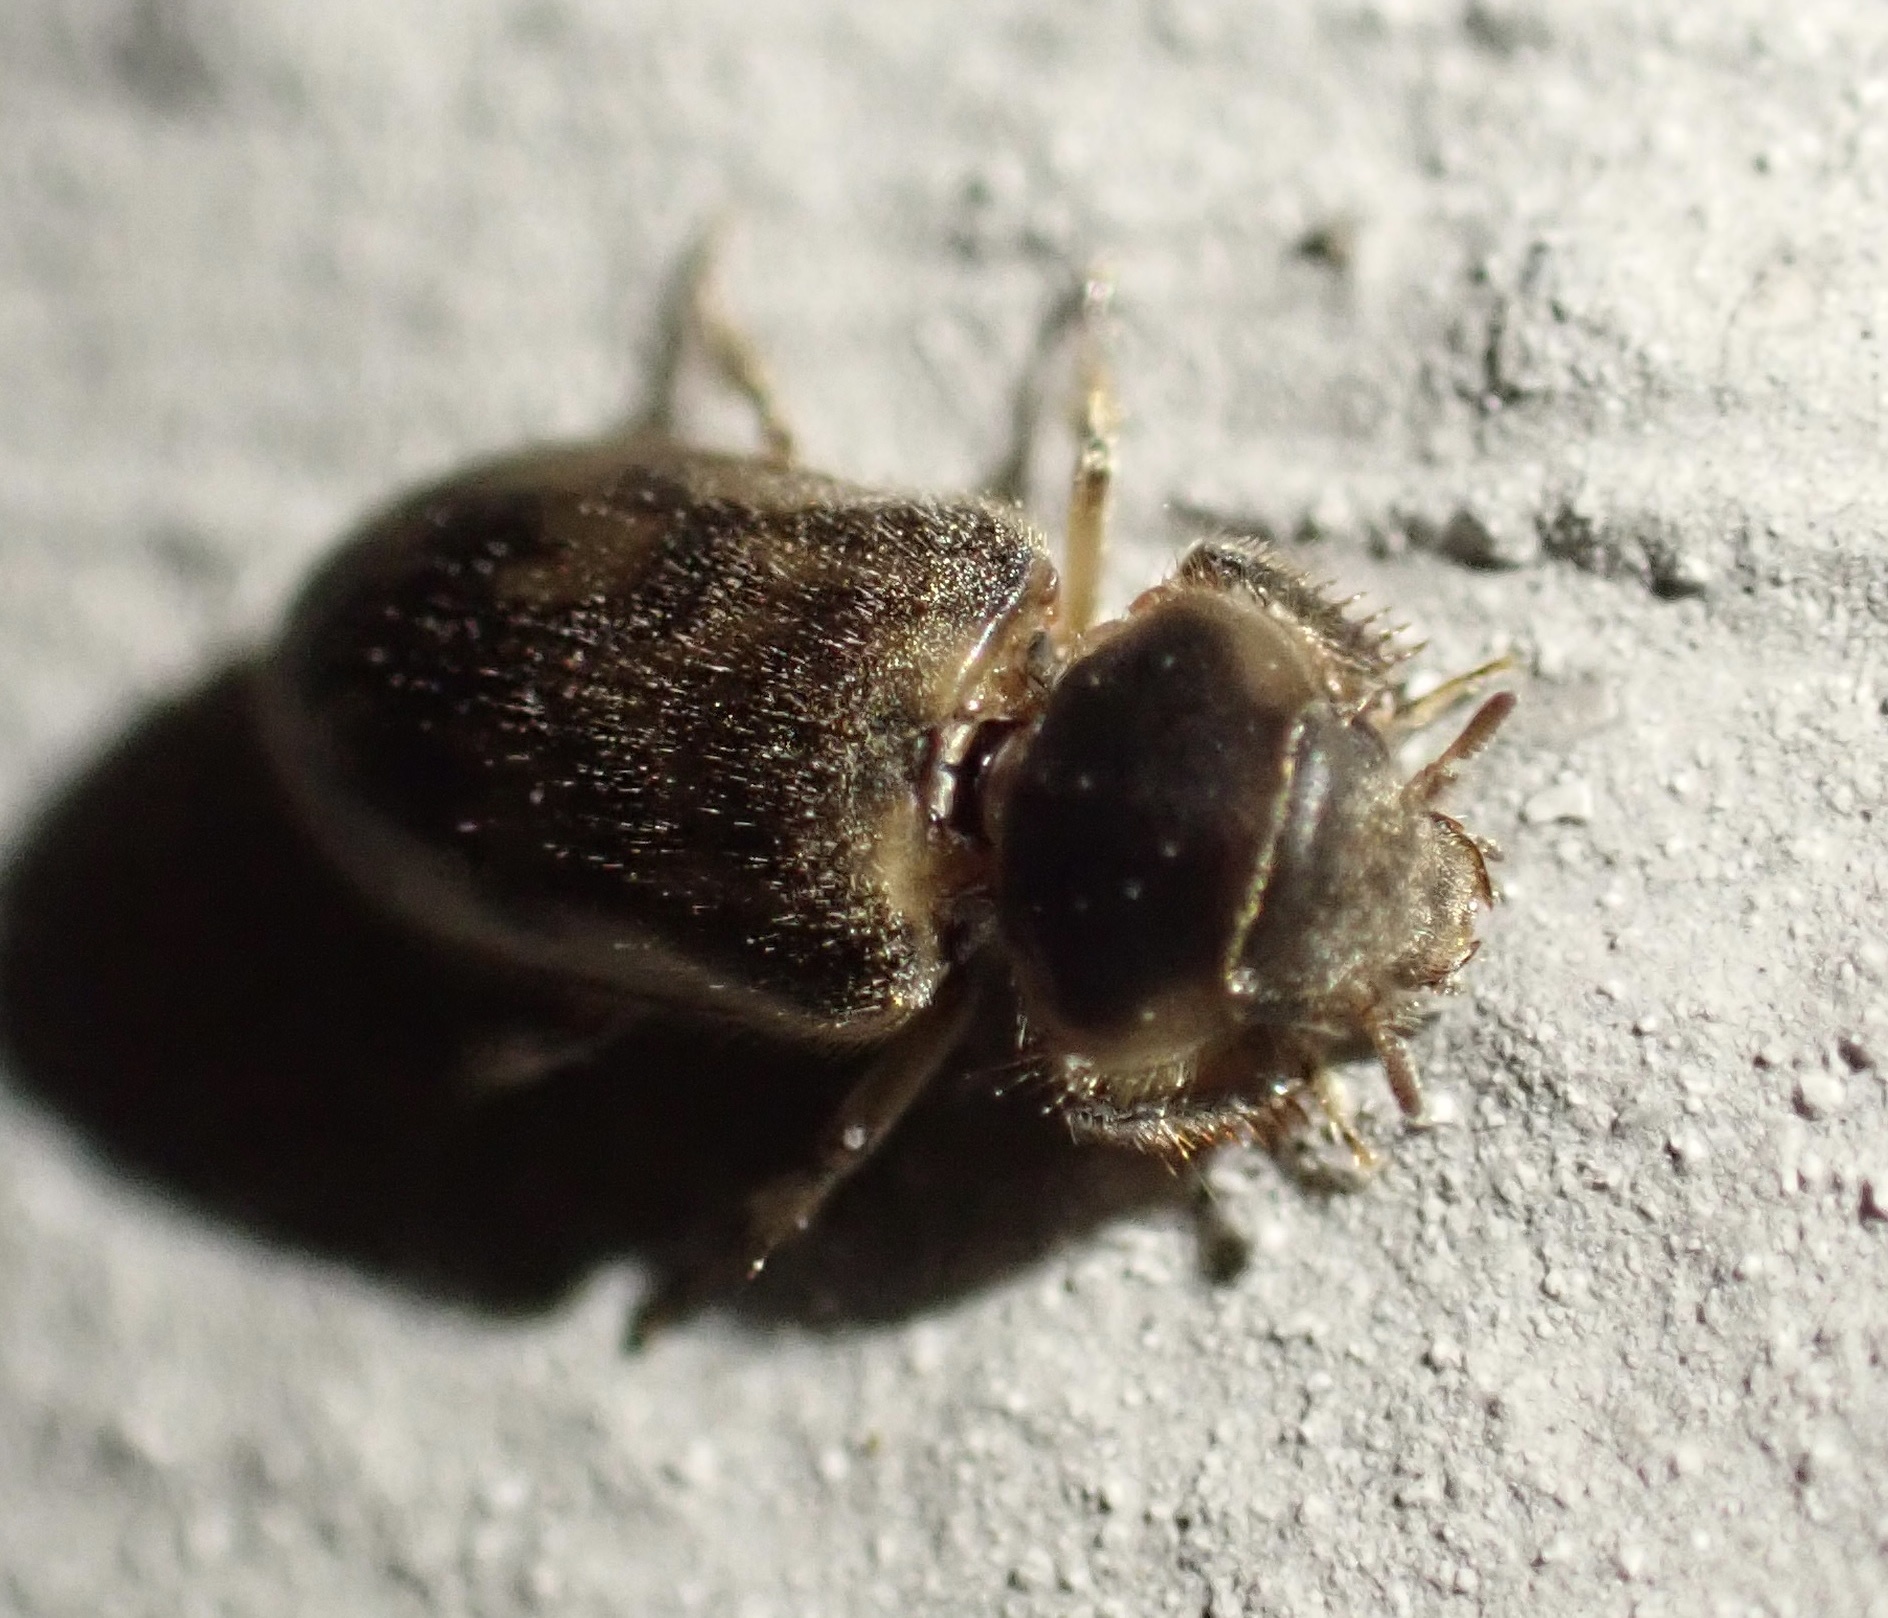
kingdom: Animalia
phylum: Arthropoda
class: Insecta
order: Coleoptera
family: Heteroceridae
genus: Heterocerus
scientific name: Heterocerus fenestratus
